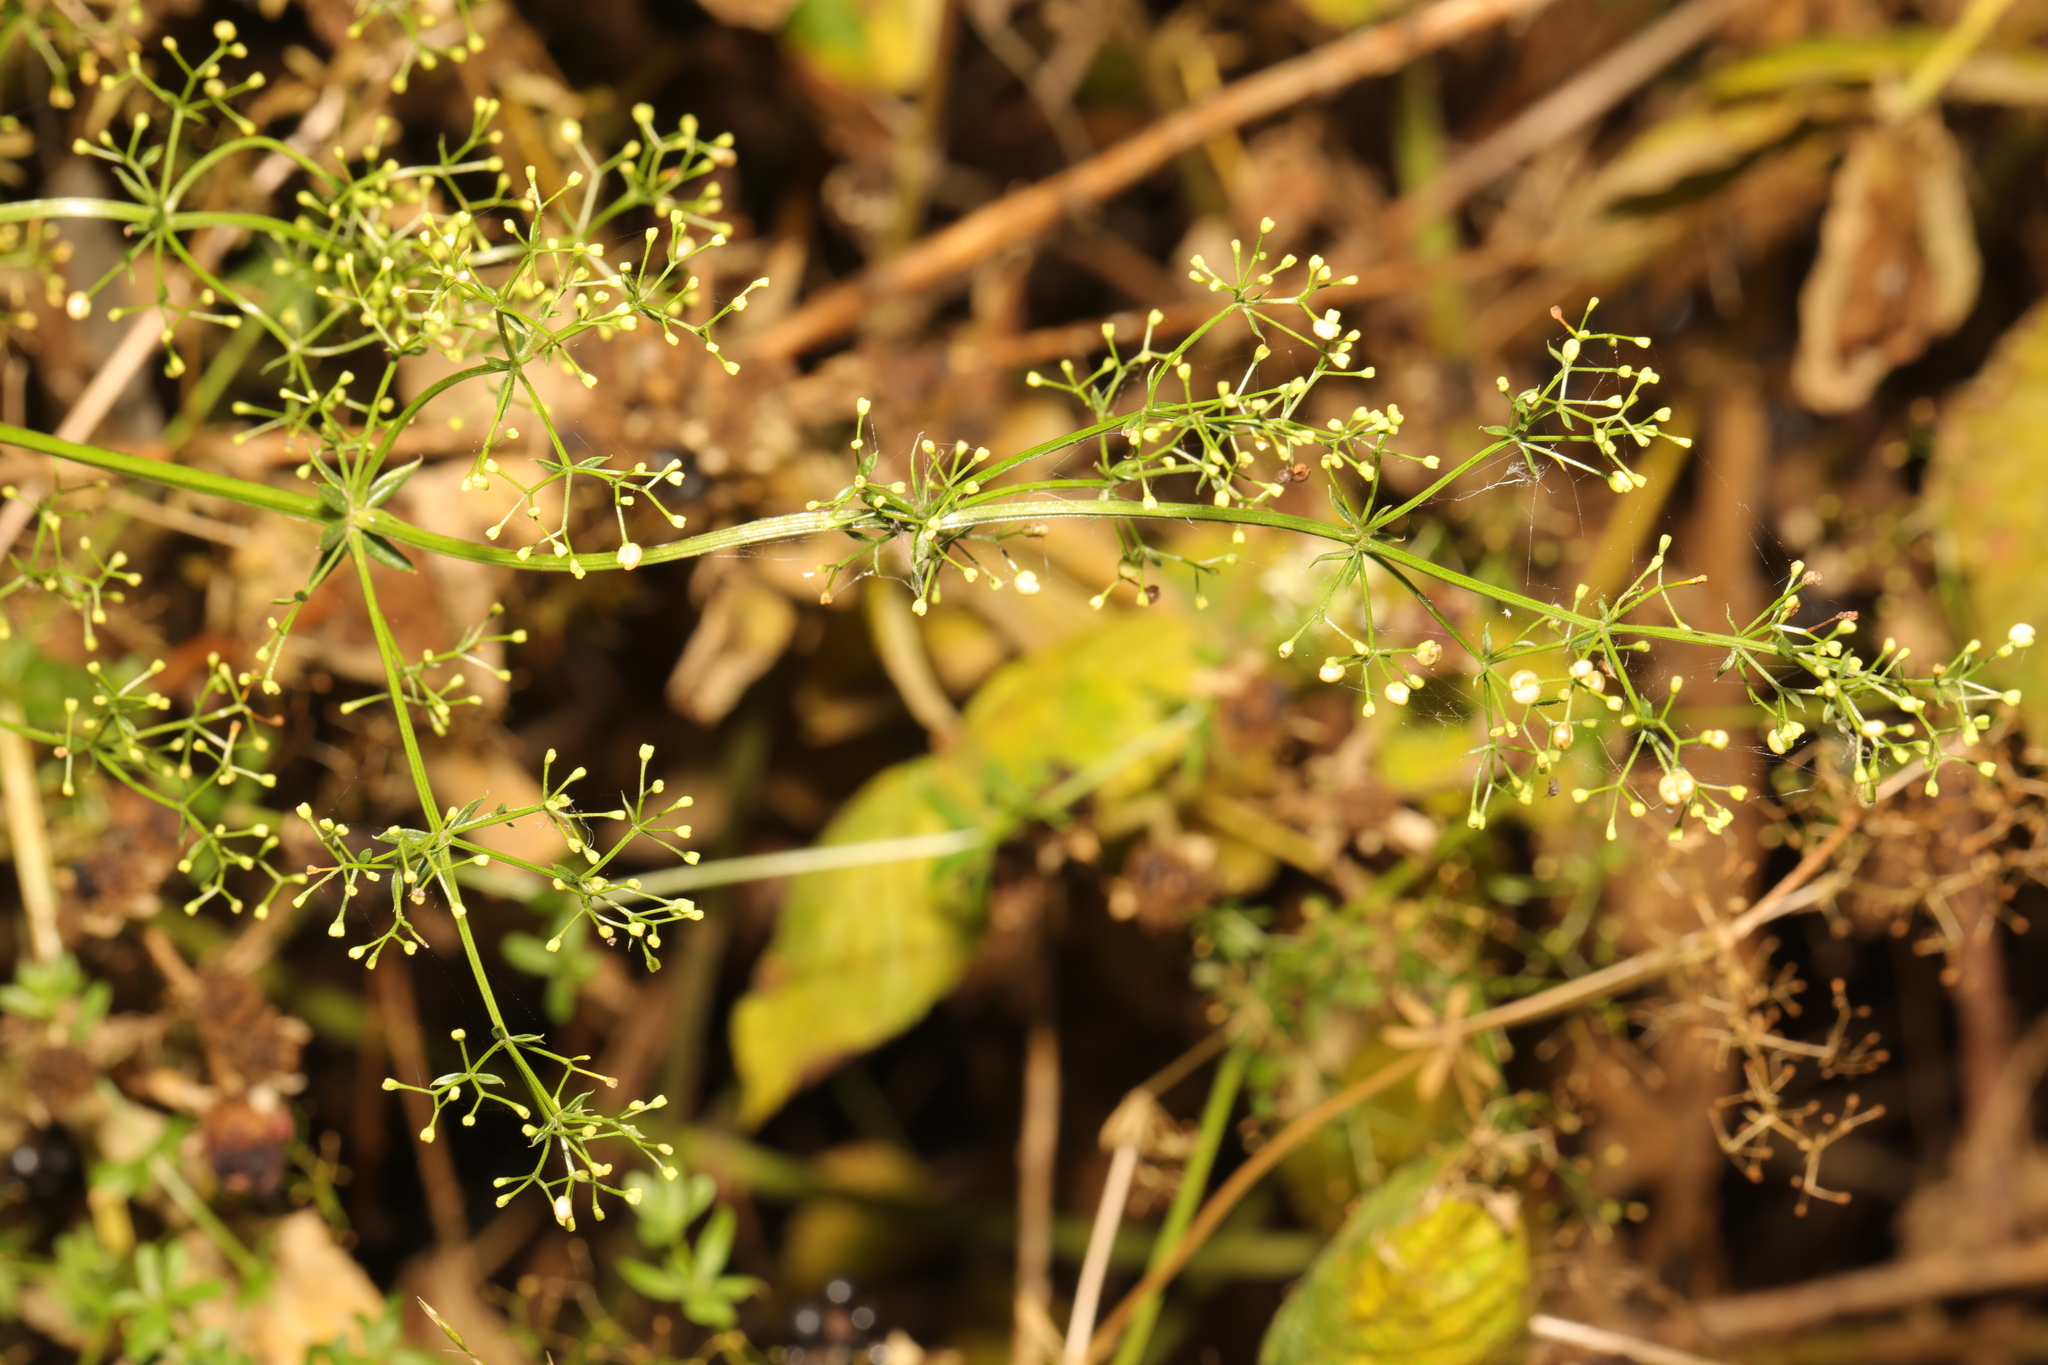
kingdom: Plantae
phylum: Tracheophyta
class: Magnoliopsida
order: Gentianales
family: Rubiaceae
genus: Galium
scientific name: Galium mollugo
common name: Hedge bedstraw
